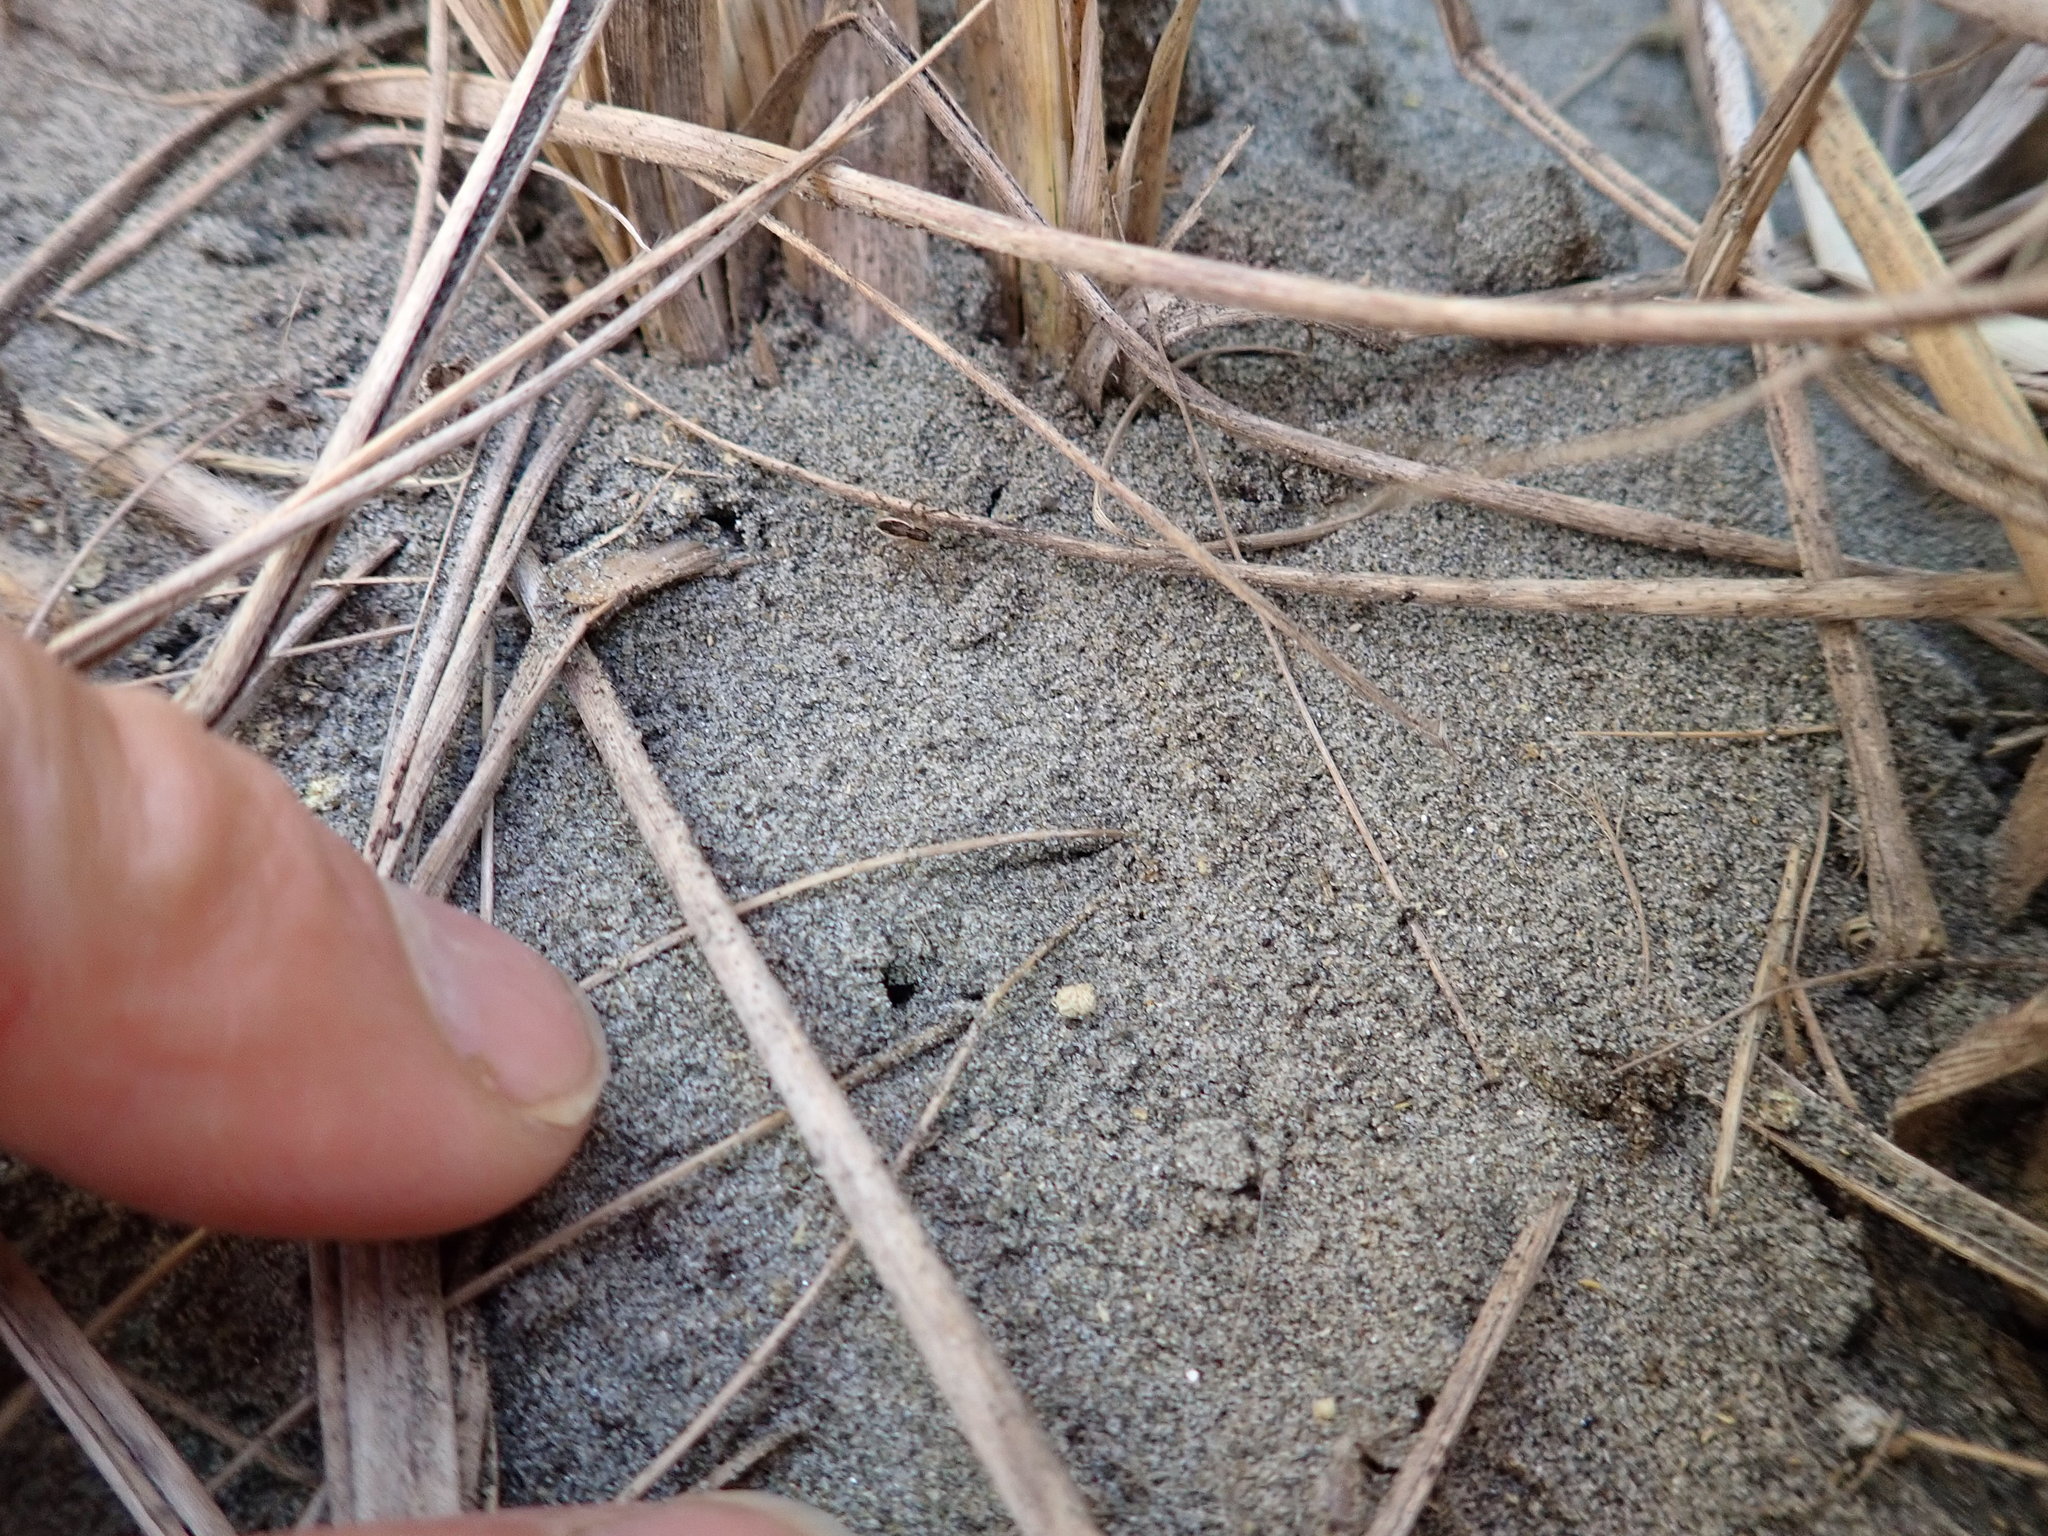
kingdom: Animalia
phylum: Arthropoda
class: Arachnida
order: Araneae
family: Pisauridae
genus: Dolomedes
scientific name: Dolomedes minor
